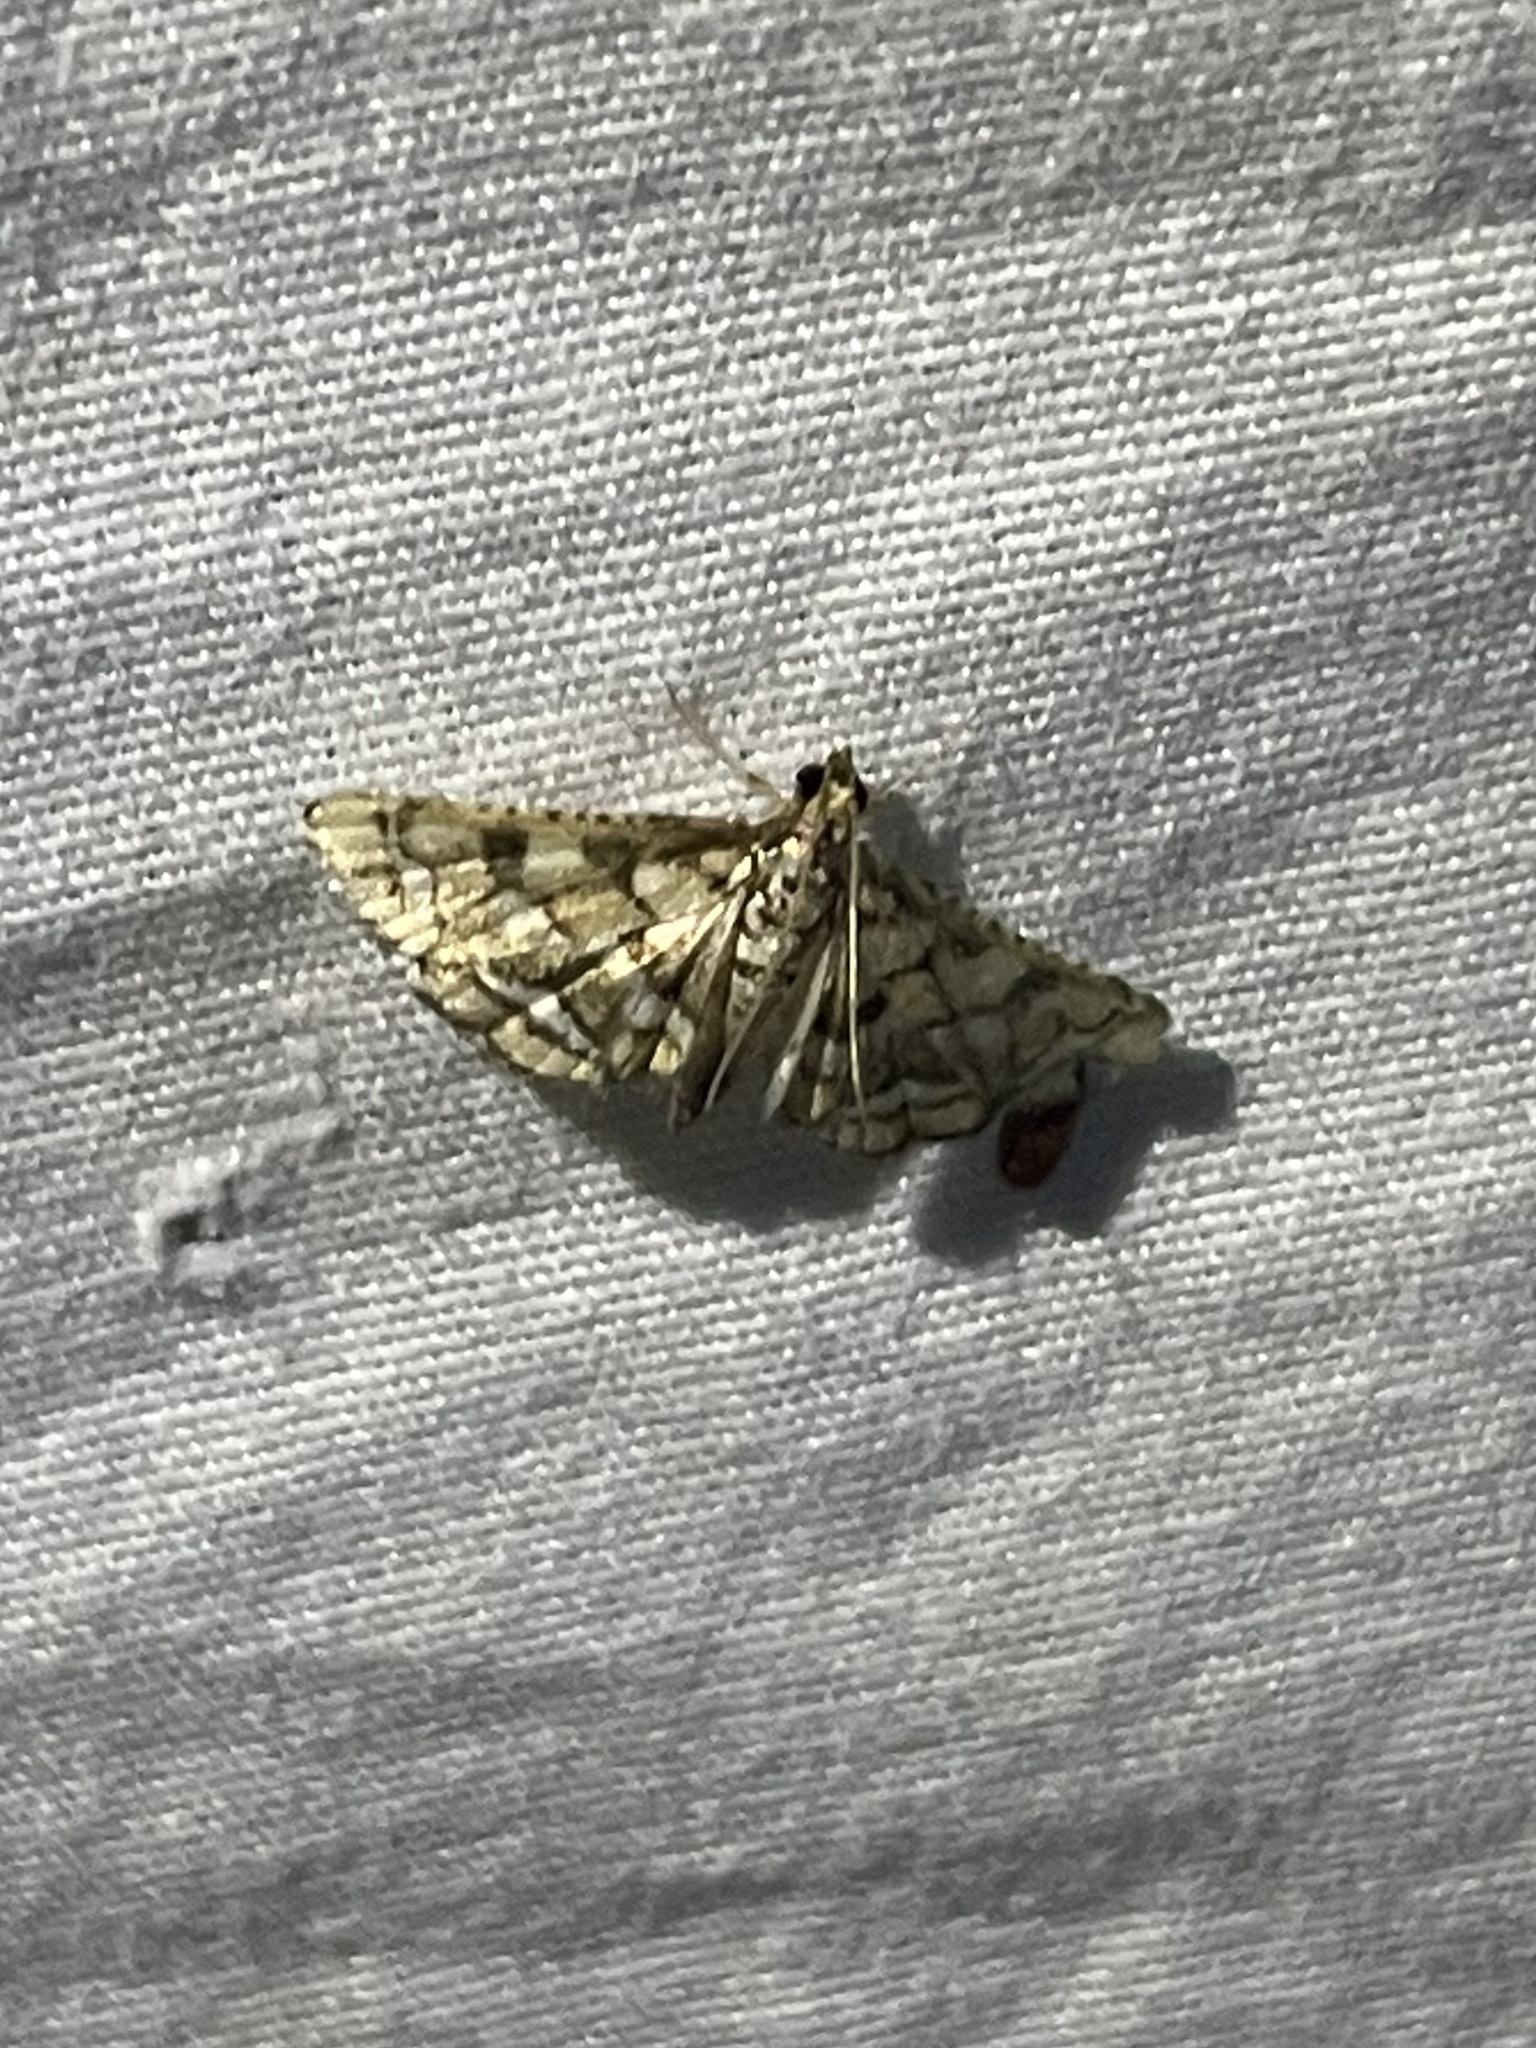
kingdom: Animalia
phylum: Arthropoda
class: Insecta
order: Lepidoptera
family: Crambidae
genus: Hileithia
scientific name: Hileithia magualis
